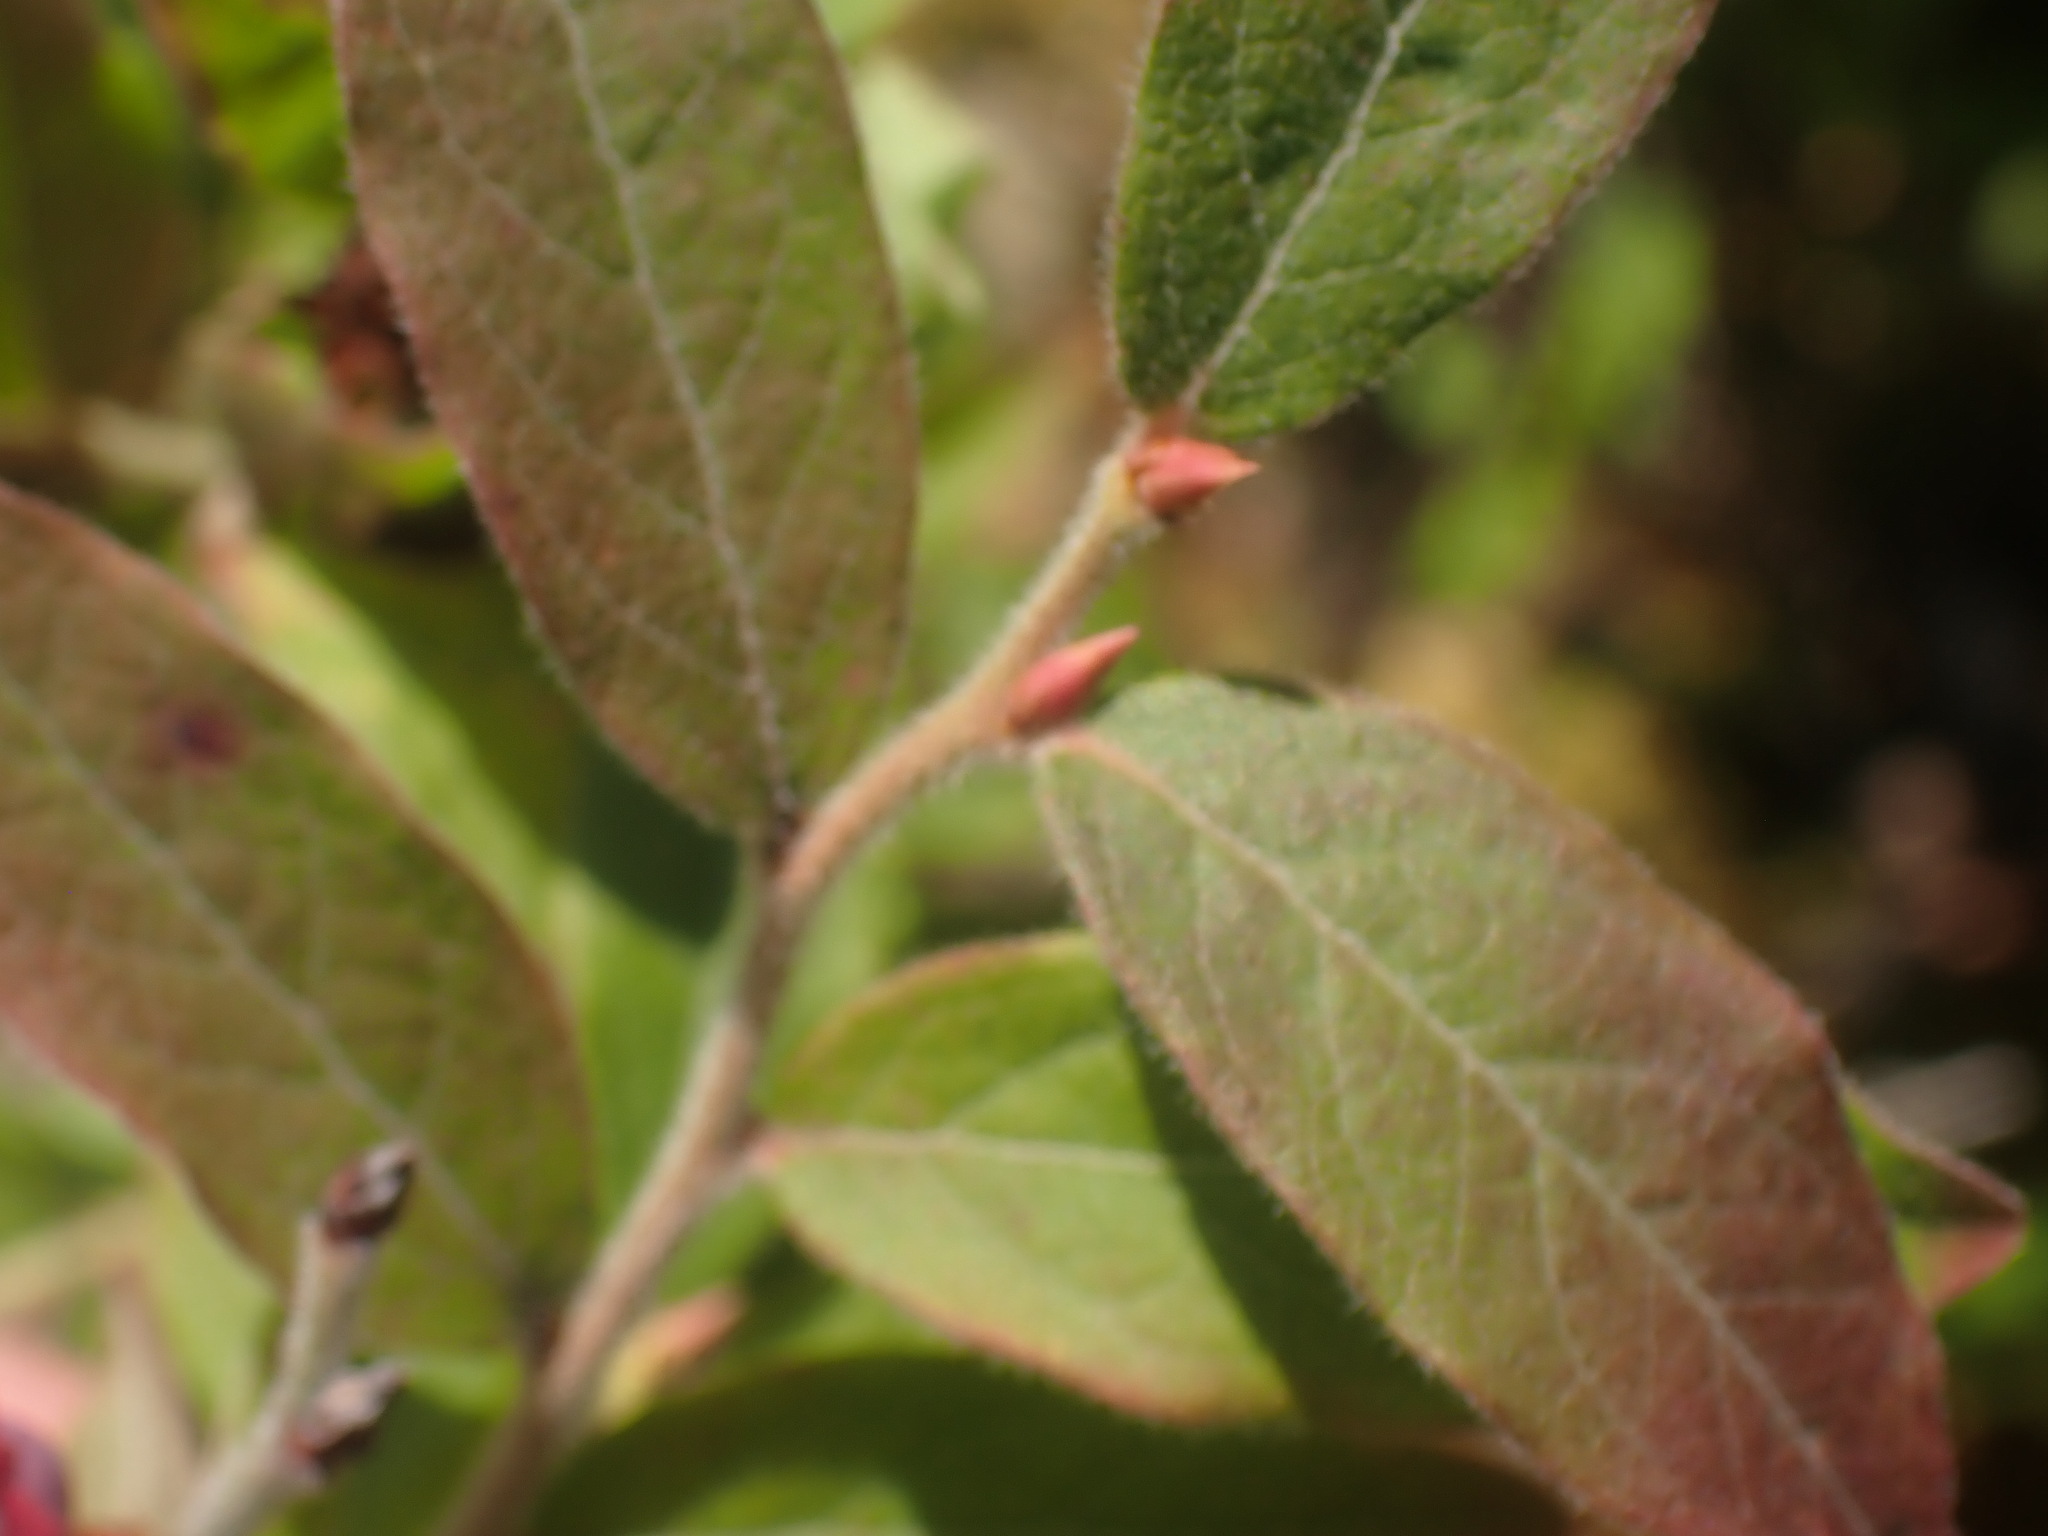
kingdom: Plantae
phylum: Tracheophyta
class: Magnoliopsida
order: Ericales
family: Ericaceae
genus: Vaccinium
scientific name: Vaccinium myrtilloides
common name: Canada blueberry
